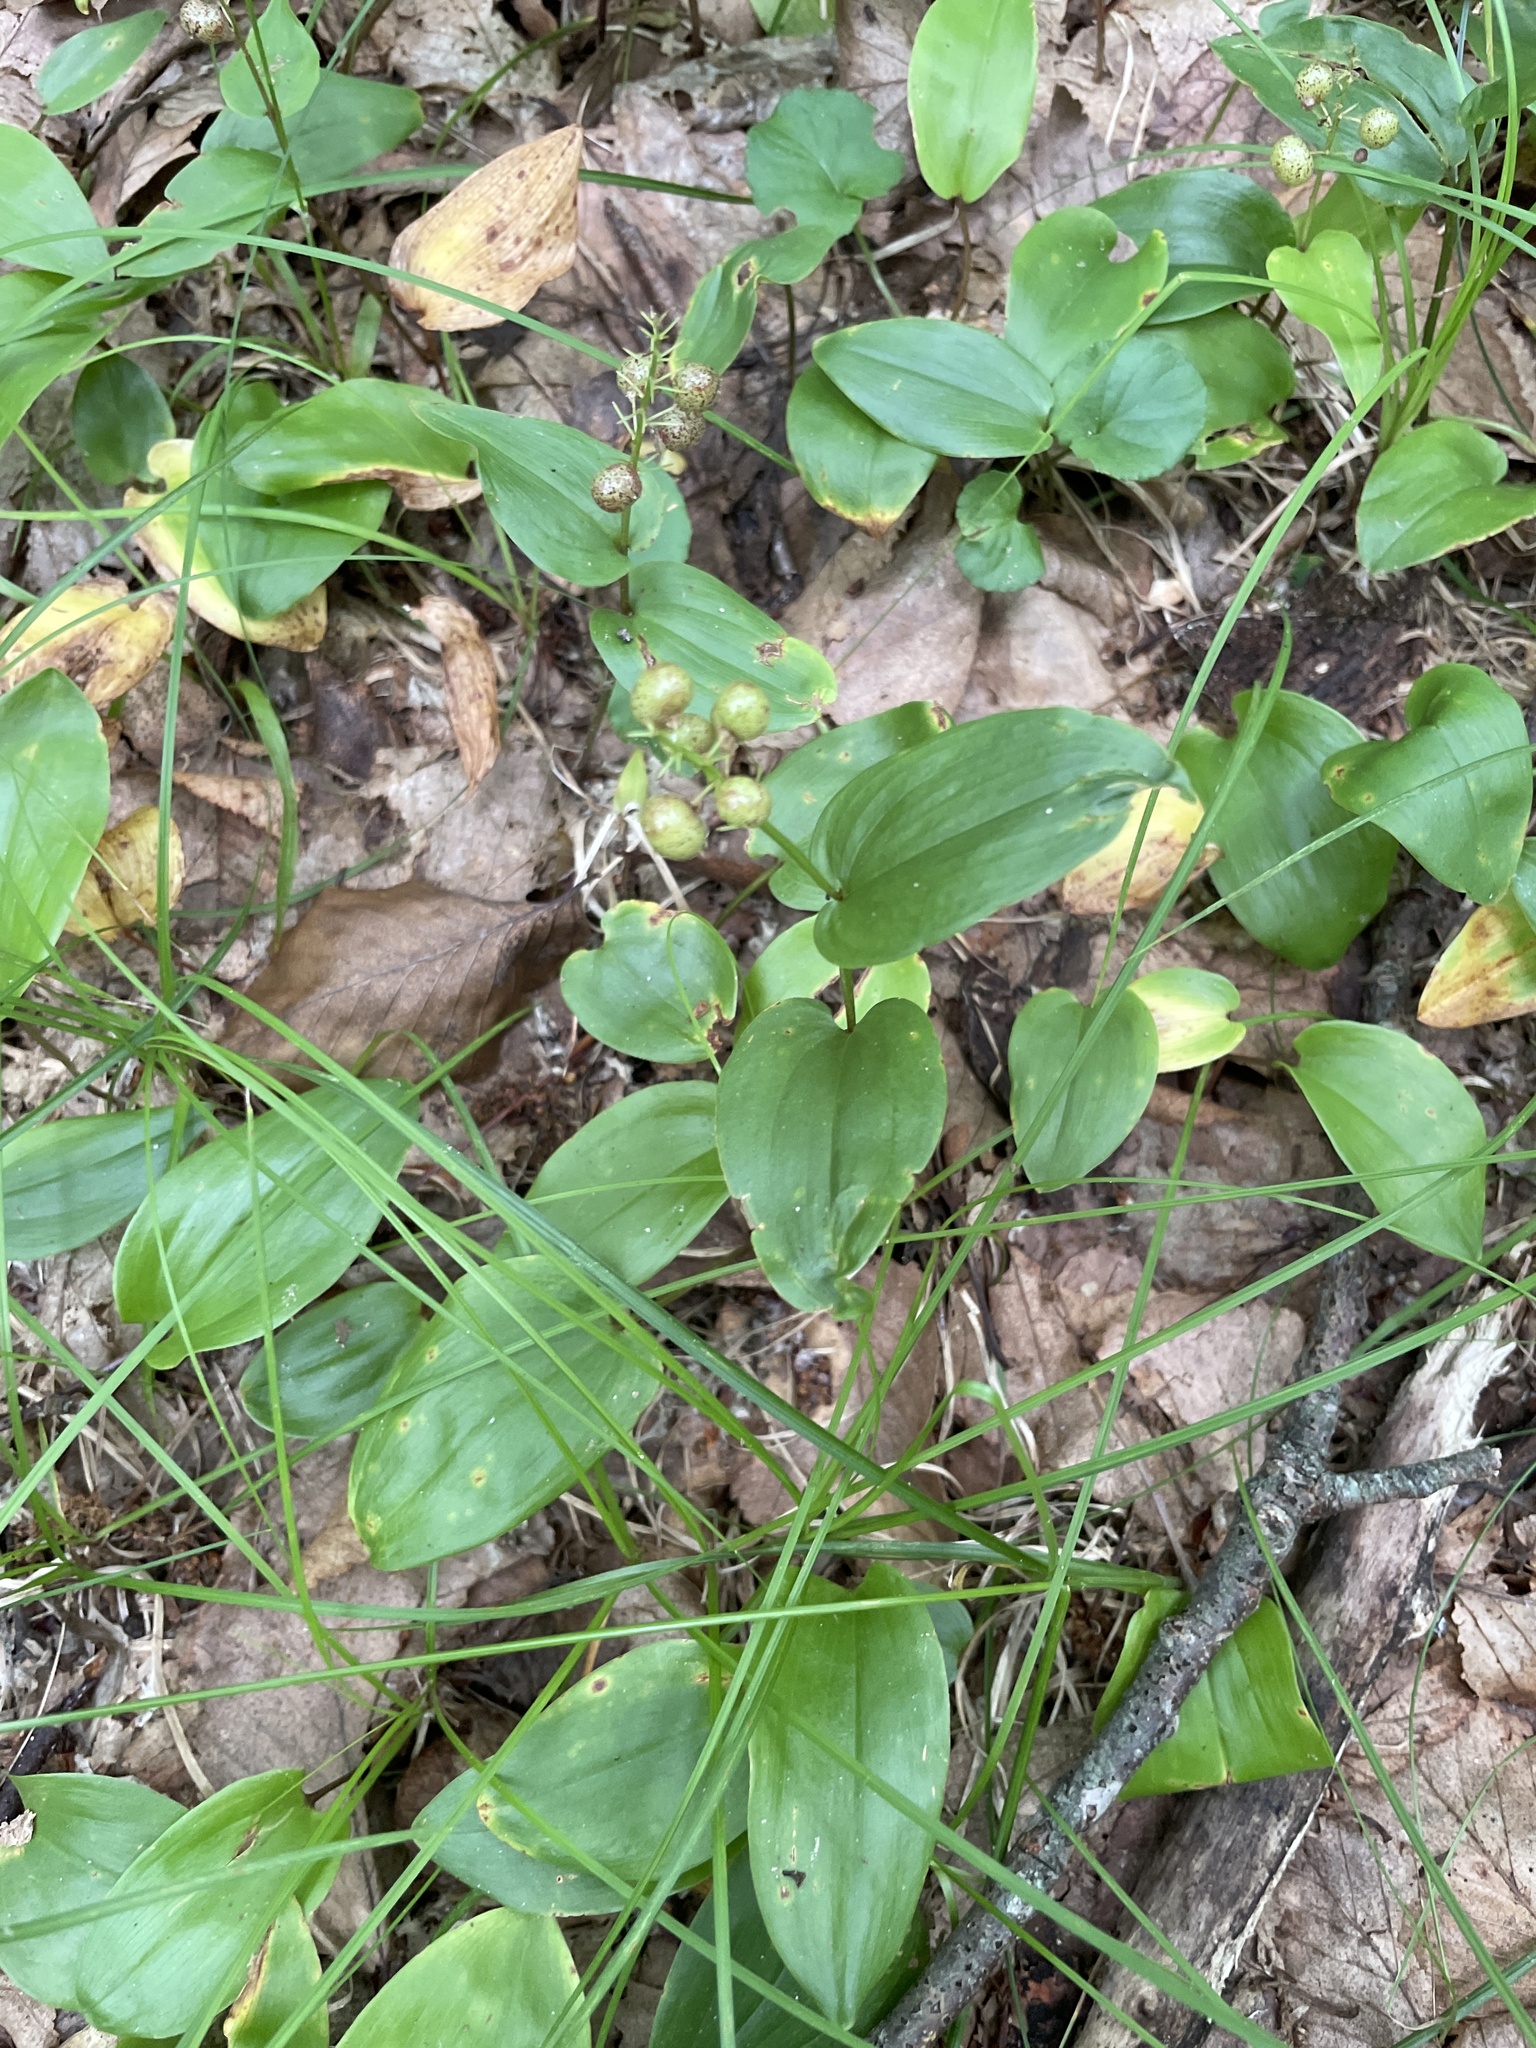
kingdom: Plantae
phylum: Tracheophyta
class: Liliopsida
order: Asparagales
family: Asparagaceae
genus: Maianthemum
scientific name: Maianthemum canadense
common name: False lily-of-the-valley
